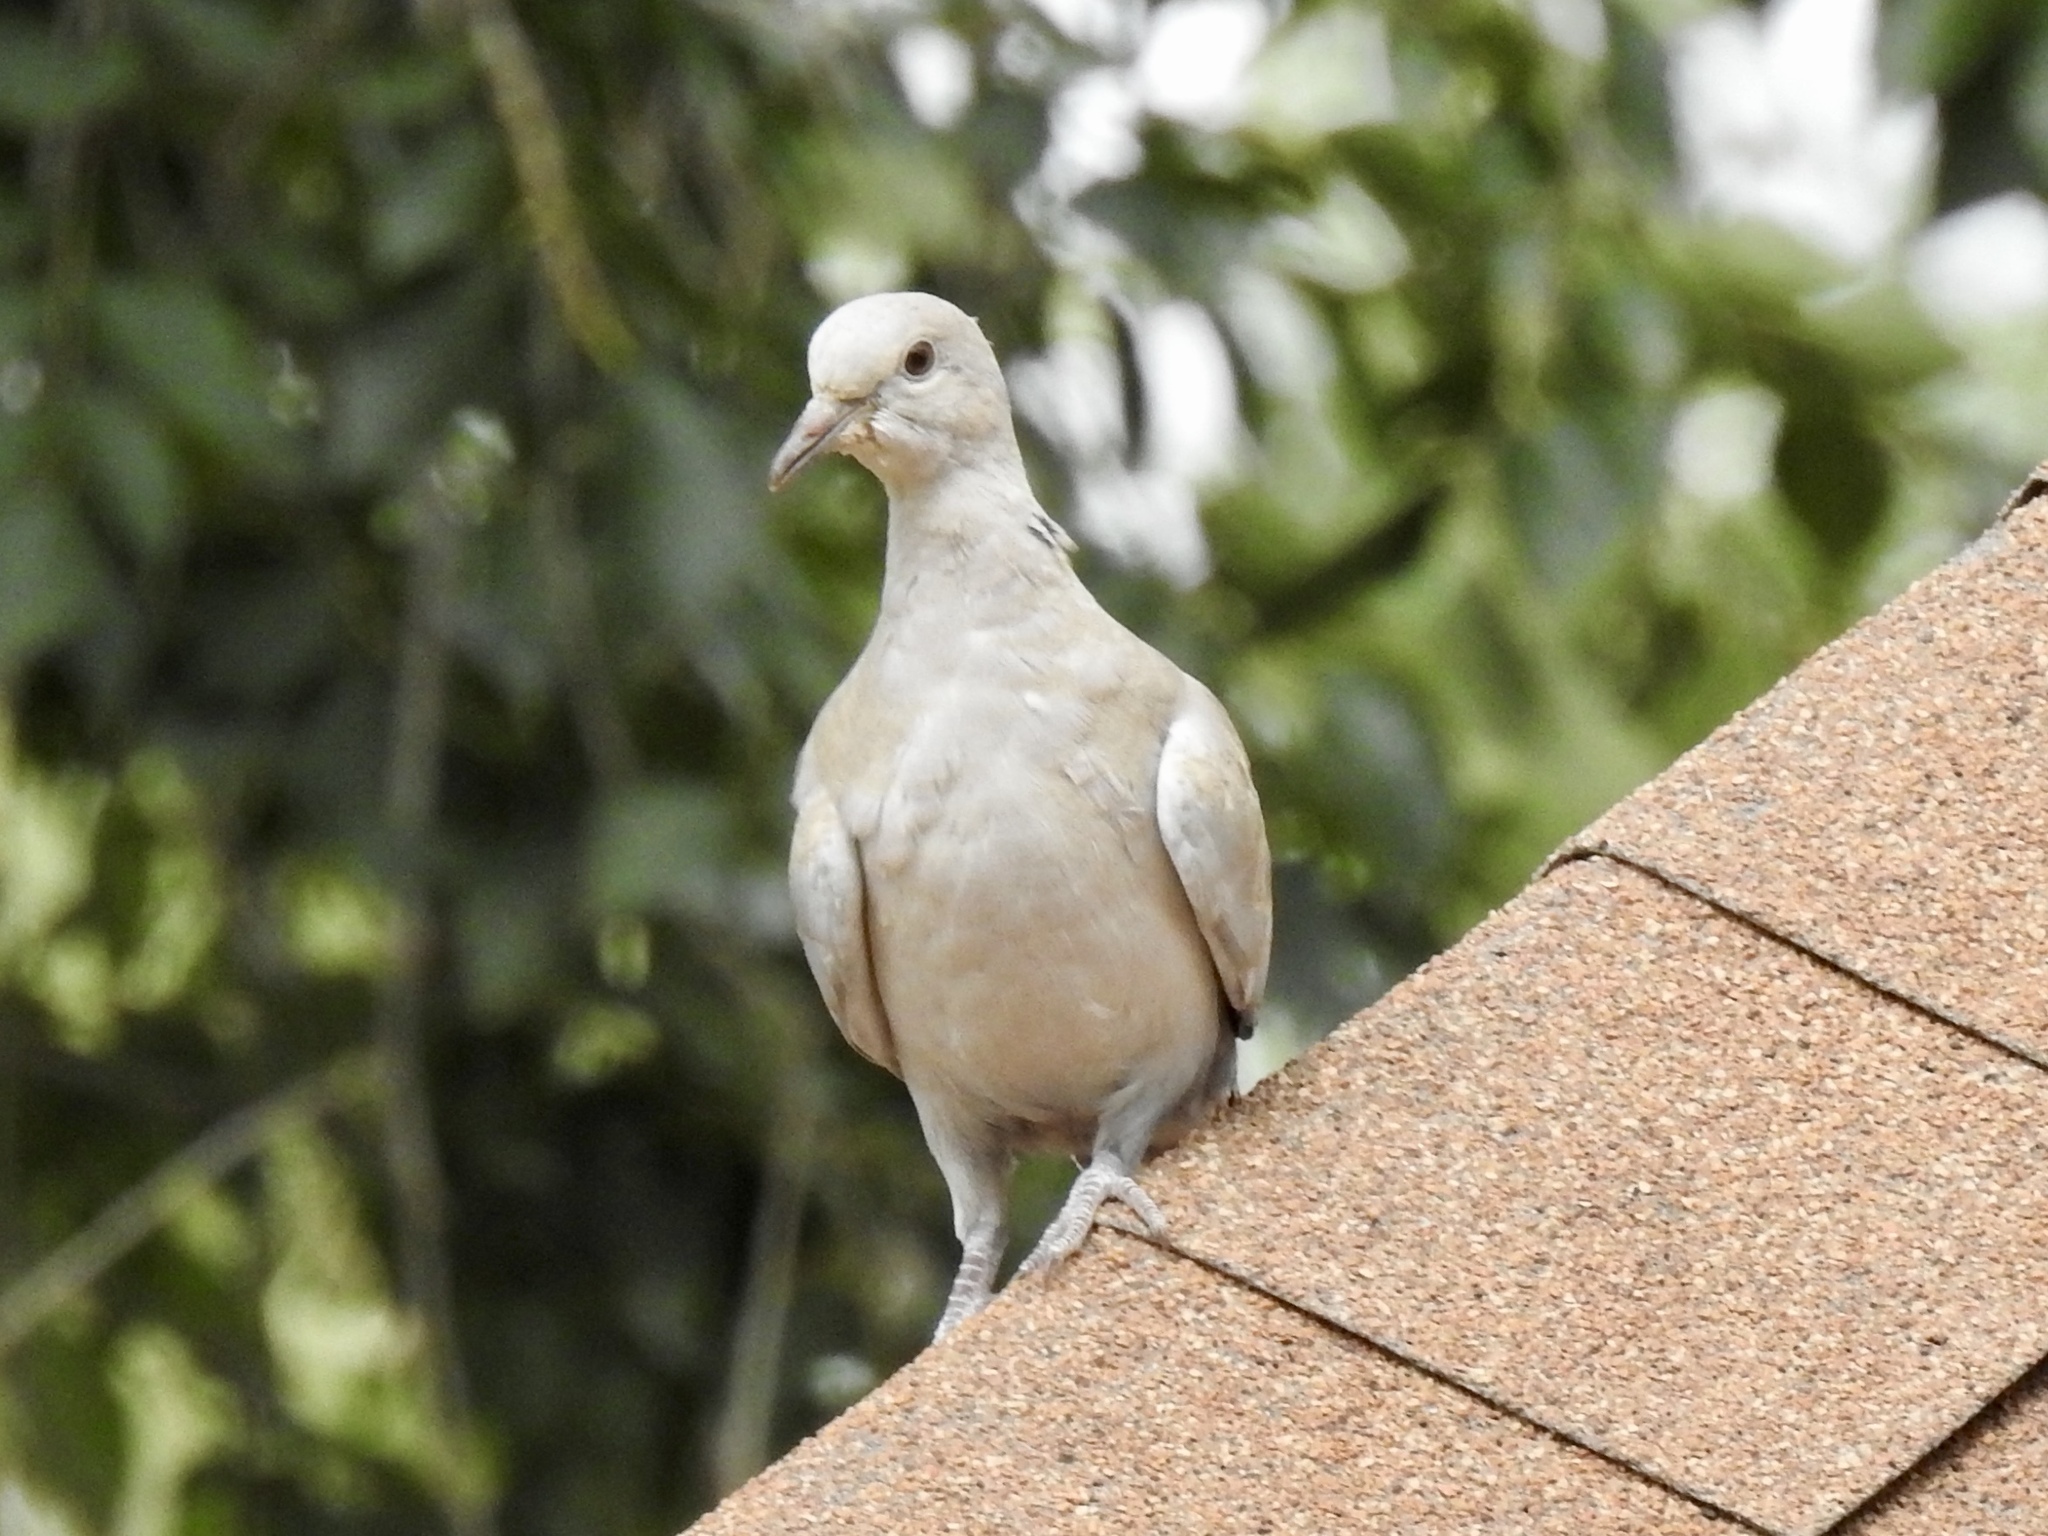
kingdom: Animalia
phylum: Chordata
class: Aves
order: Columbiformes
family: Columbidae
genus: Streptopelia
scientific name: Streptopelia decaocto
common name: Eurasian collared dove
